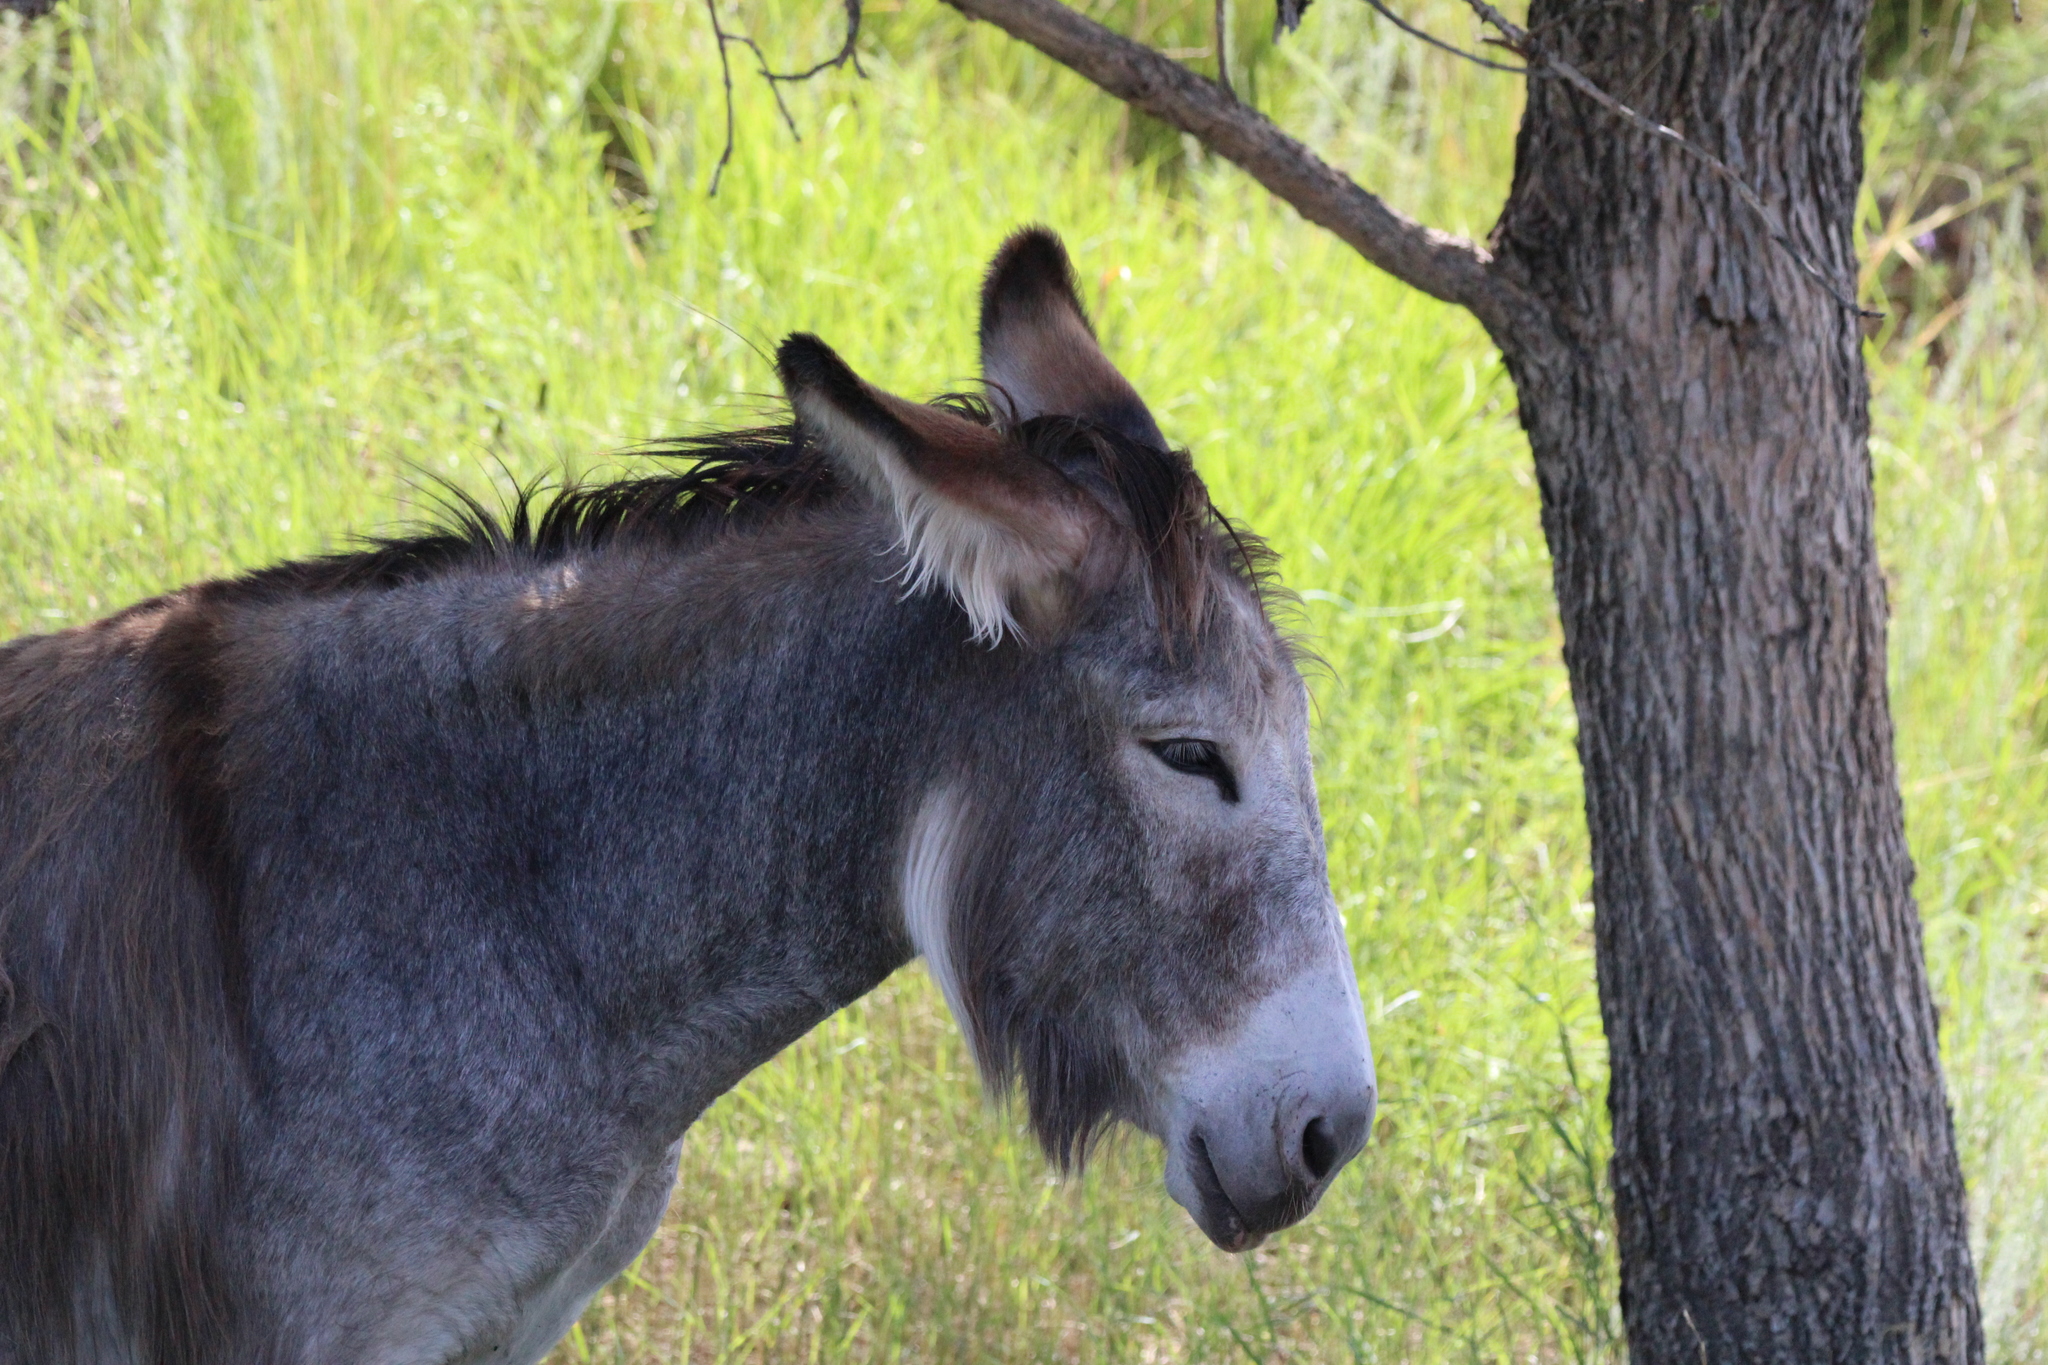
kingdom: Animalia
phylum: Chordata
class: Mammalia
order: Perissodactyla
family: Equidae
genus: Equus
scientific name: Equus asinus
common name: Ass
